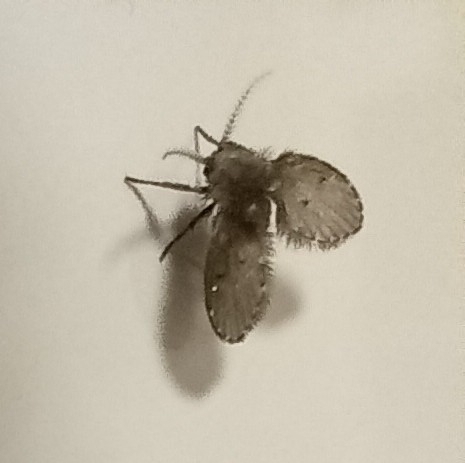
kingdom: Animalia
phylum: Arthropoda
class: Insecta
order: Diptera
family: Psychodidae
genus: Clogmia
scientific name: Clogmia albipunctatus
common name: White-spotted moth fly
